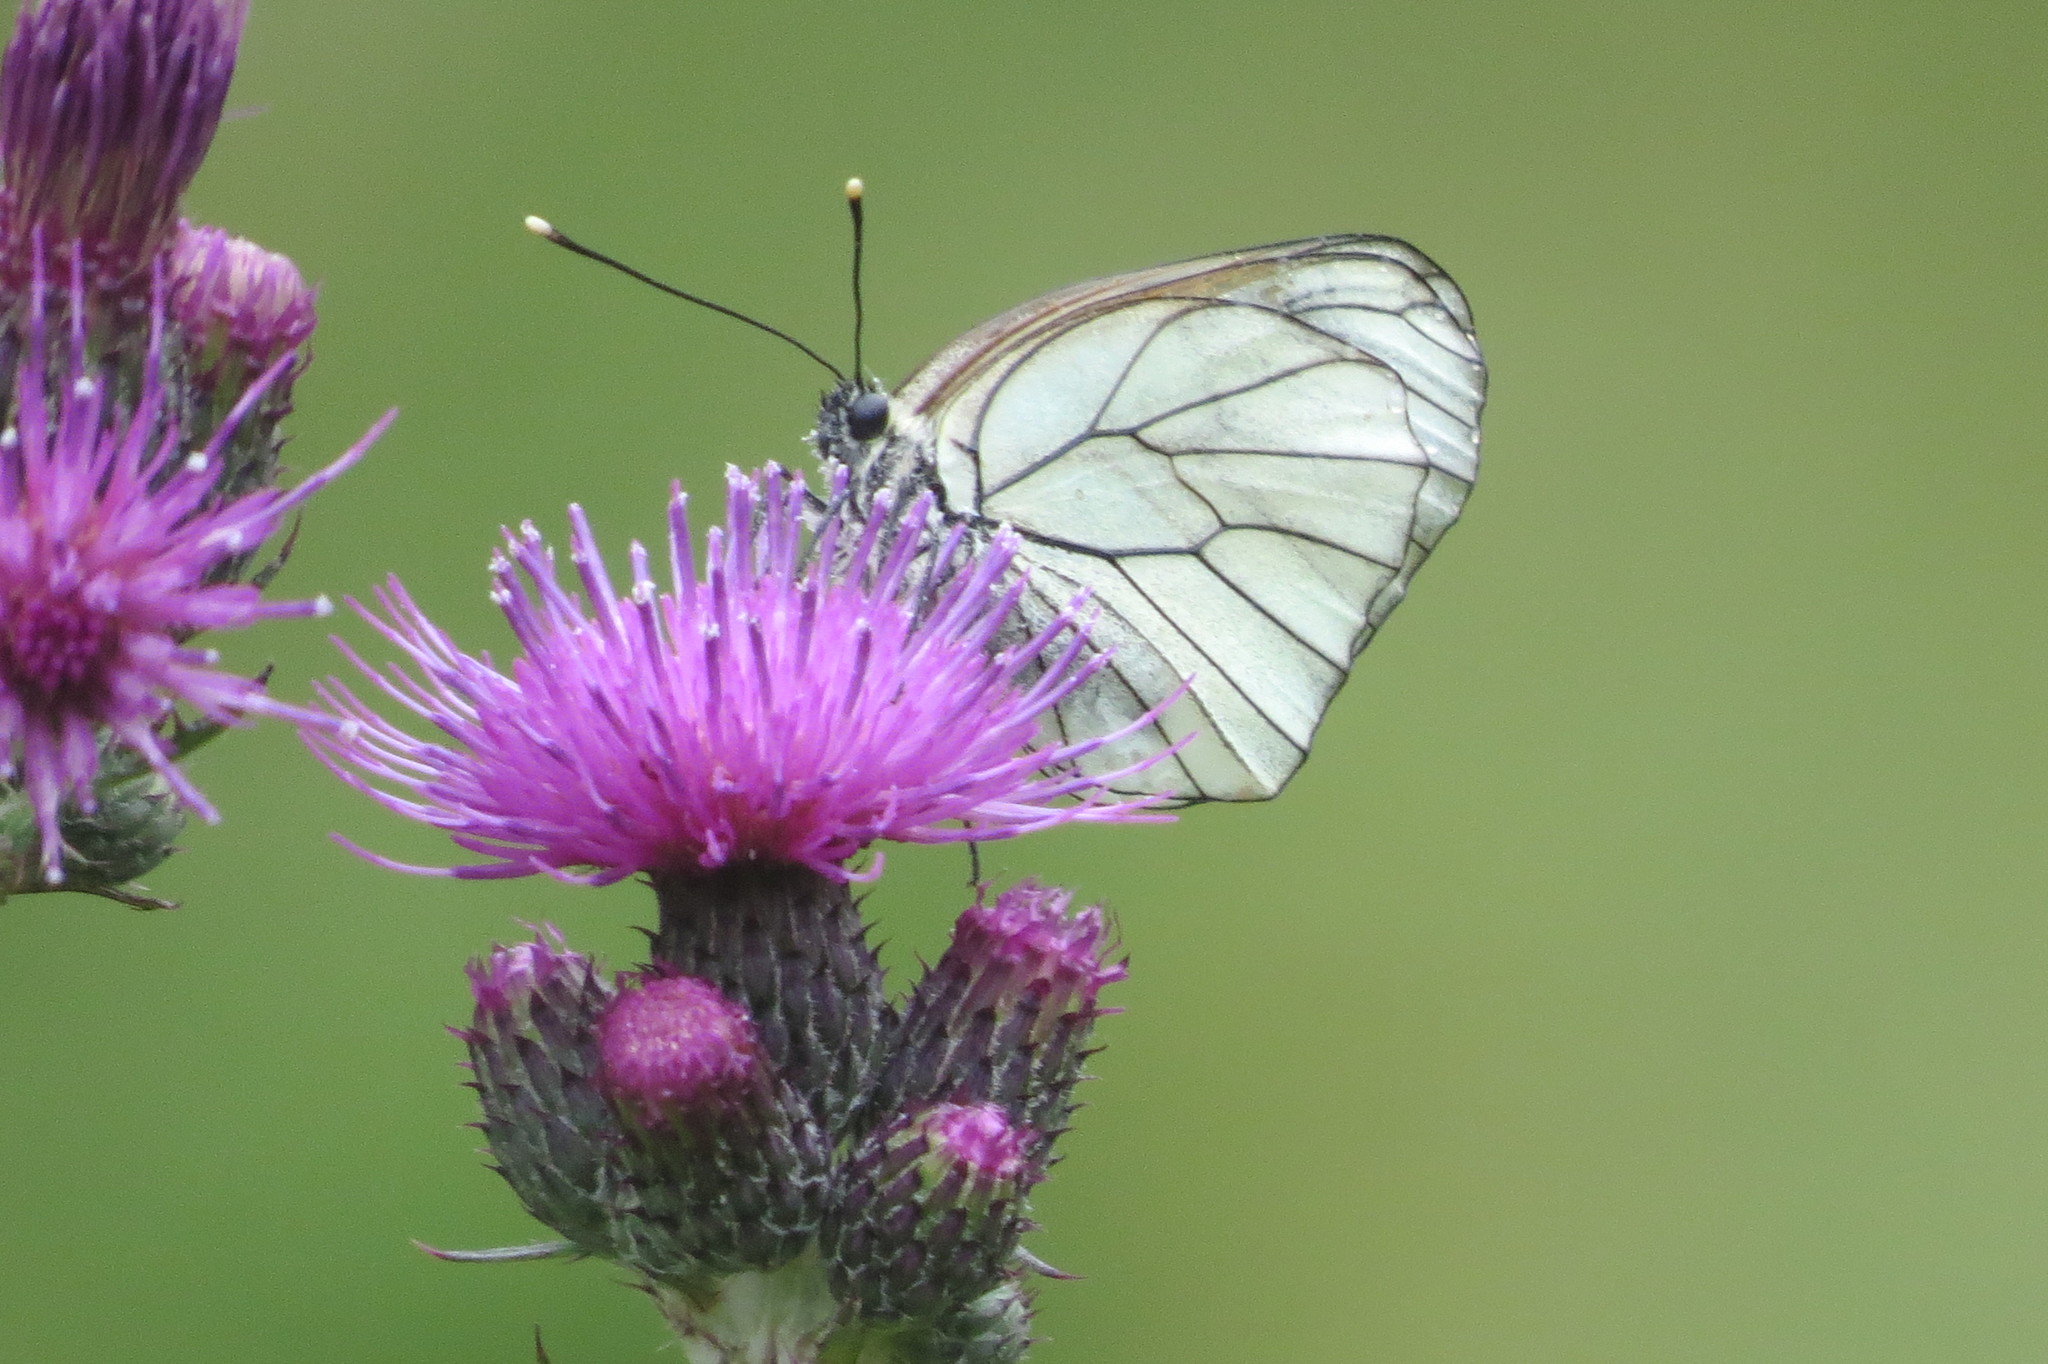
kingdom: Animalia
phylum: Arthropoda
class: Insecta
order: Lepidoptera
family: Pieridae
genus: Aporia
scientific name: Aporia crataegi
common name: Black-veined white
